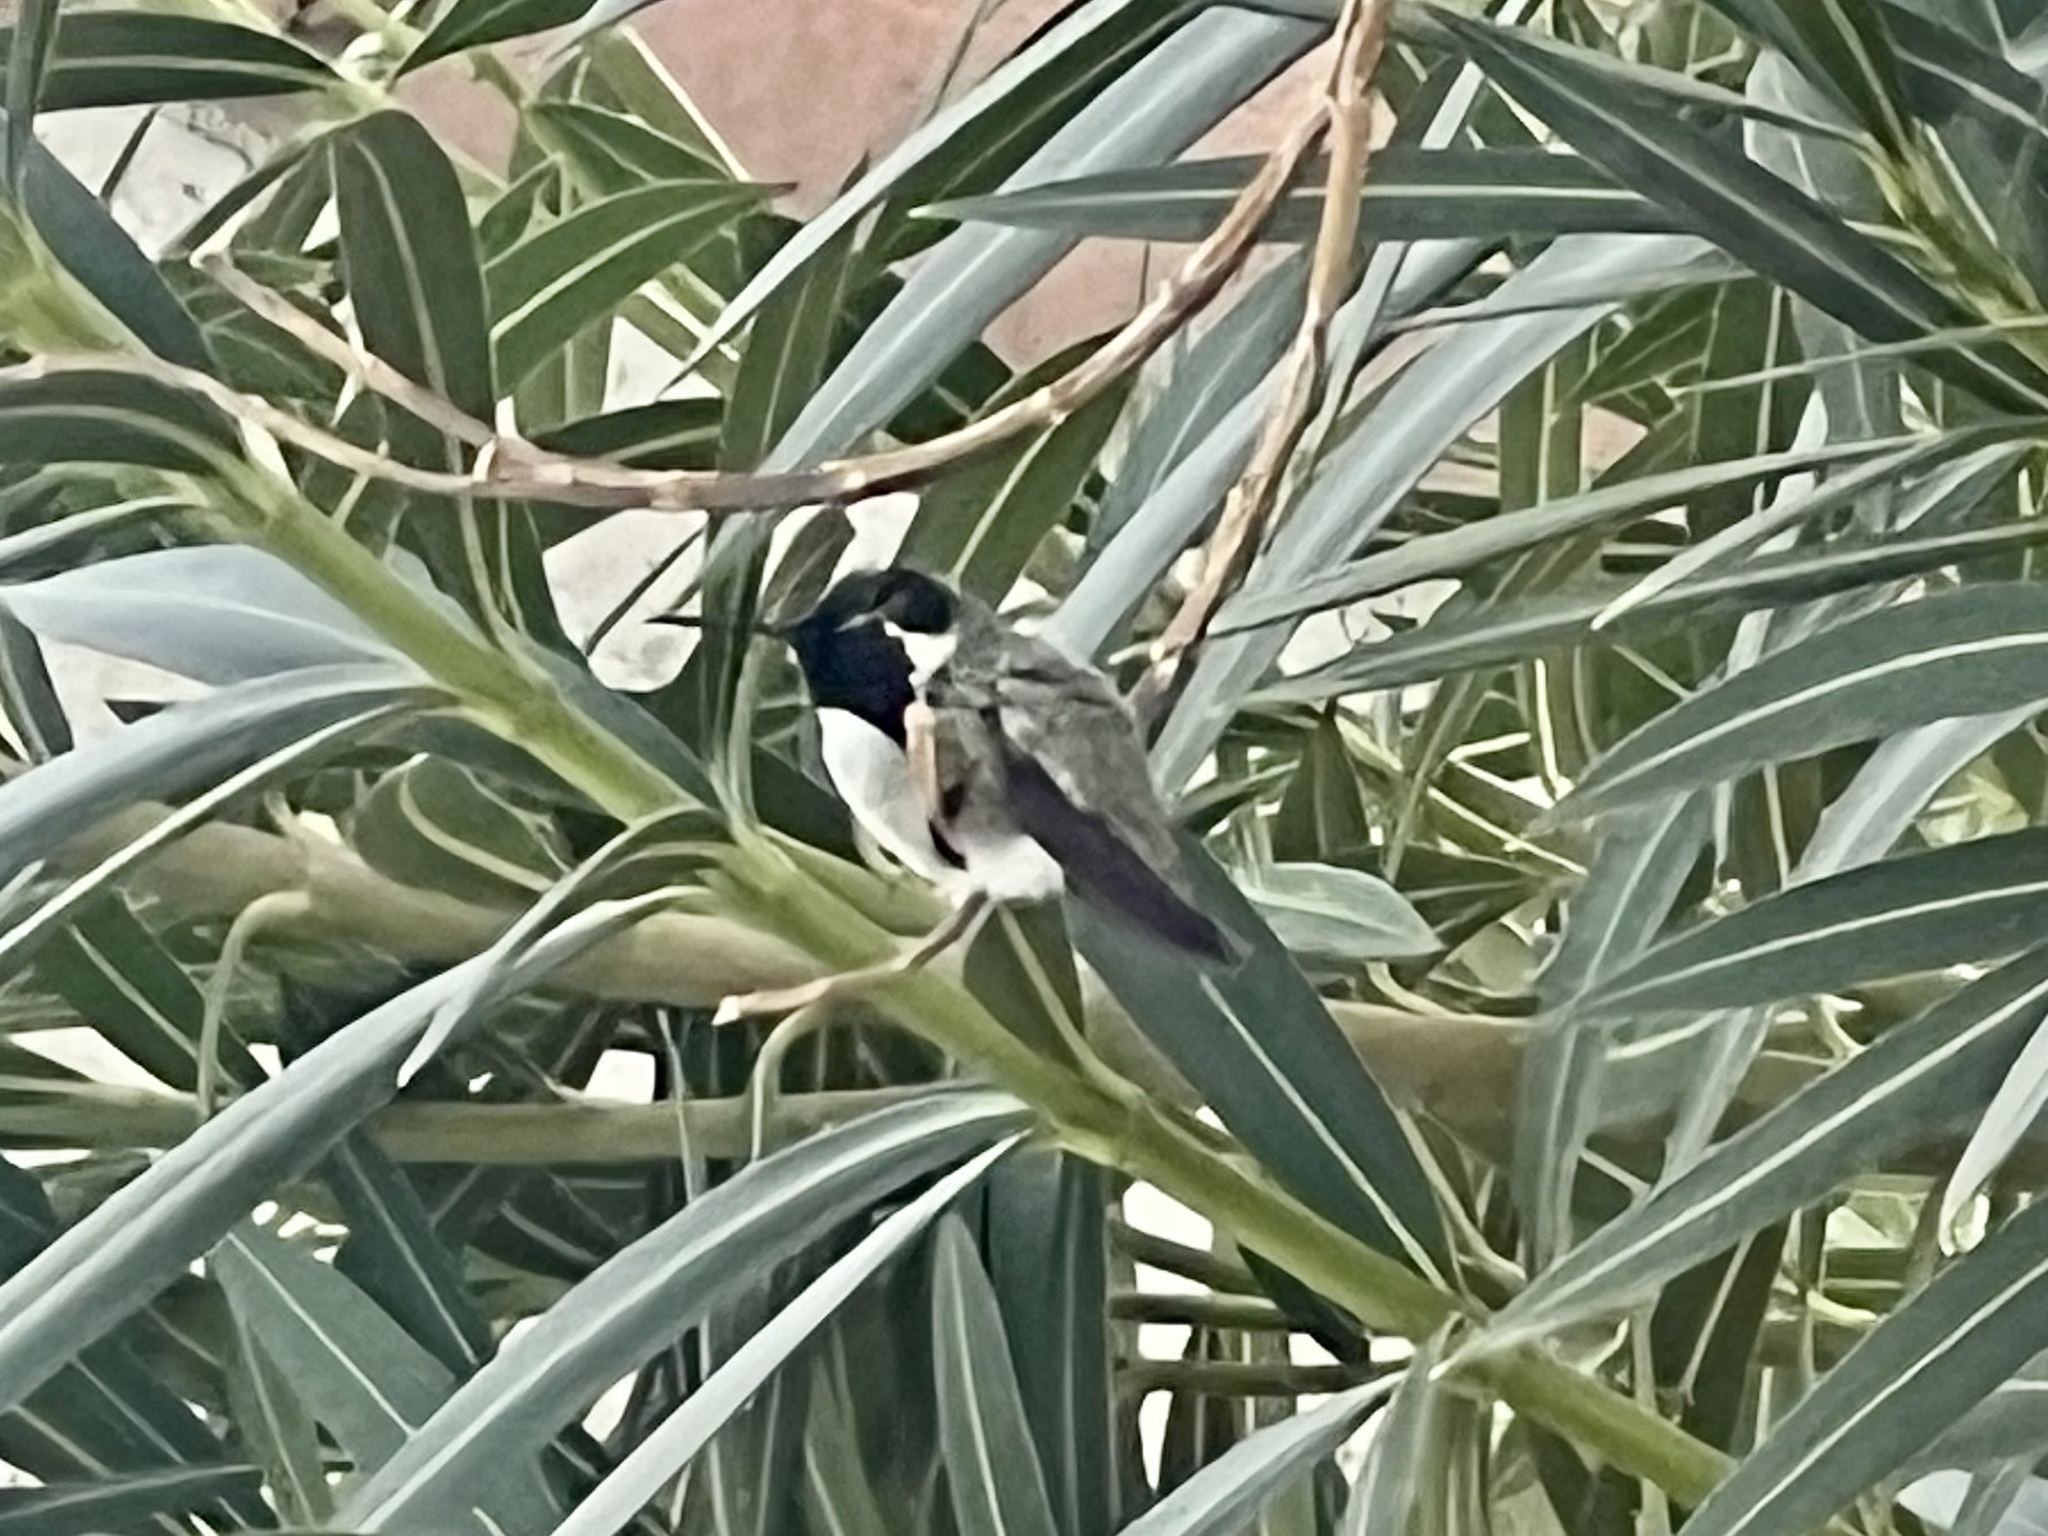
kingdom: Animalia
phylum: Chordata
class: Aves
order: Apodiformes
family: Trochilidae
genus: Calypte
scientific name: Calypte costae
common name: Costa's hummingbird
